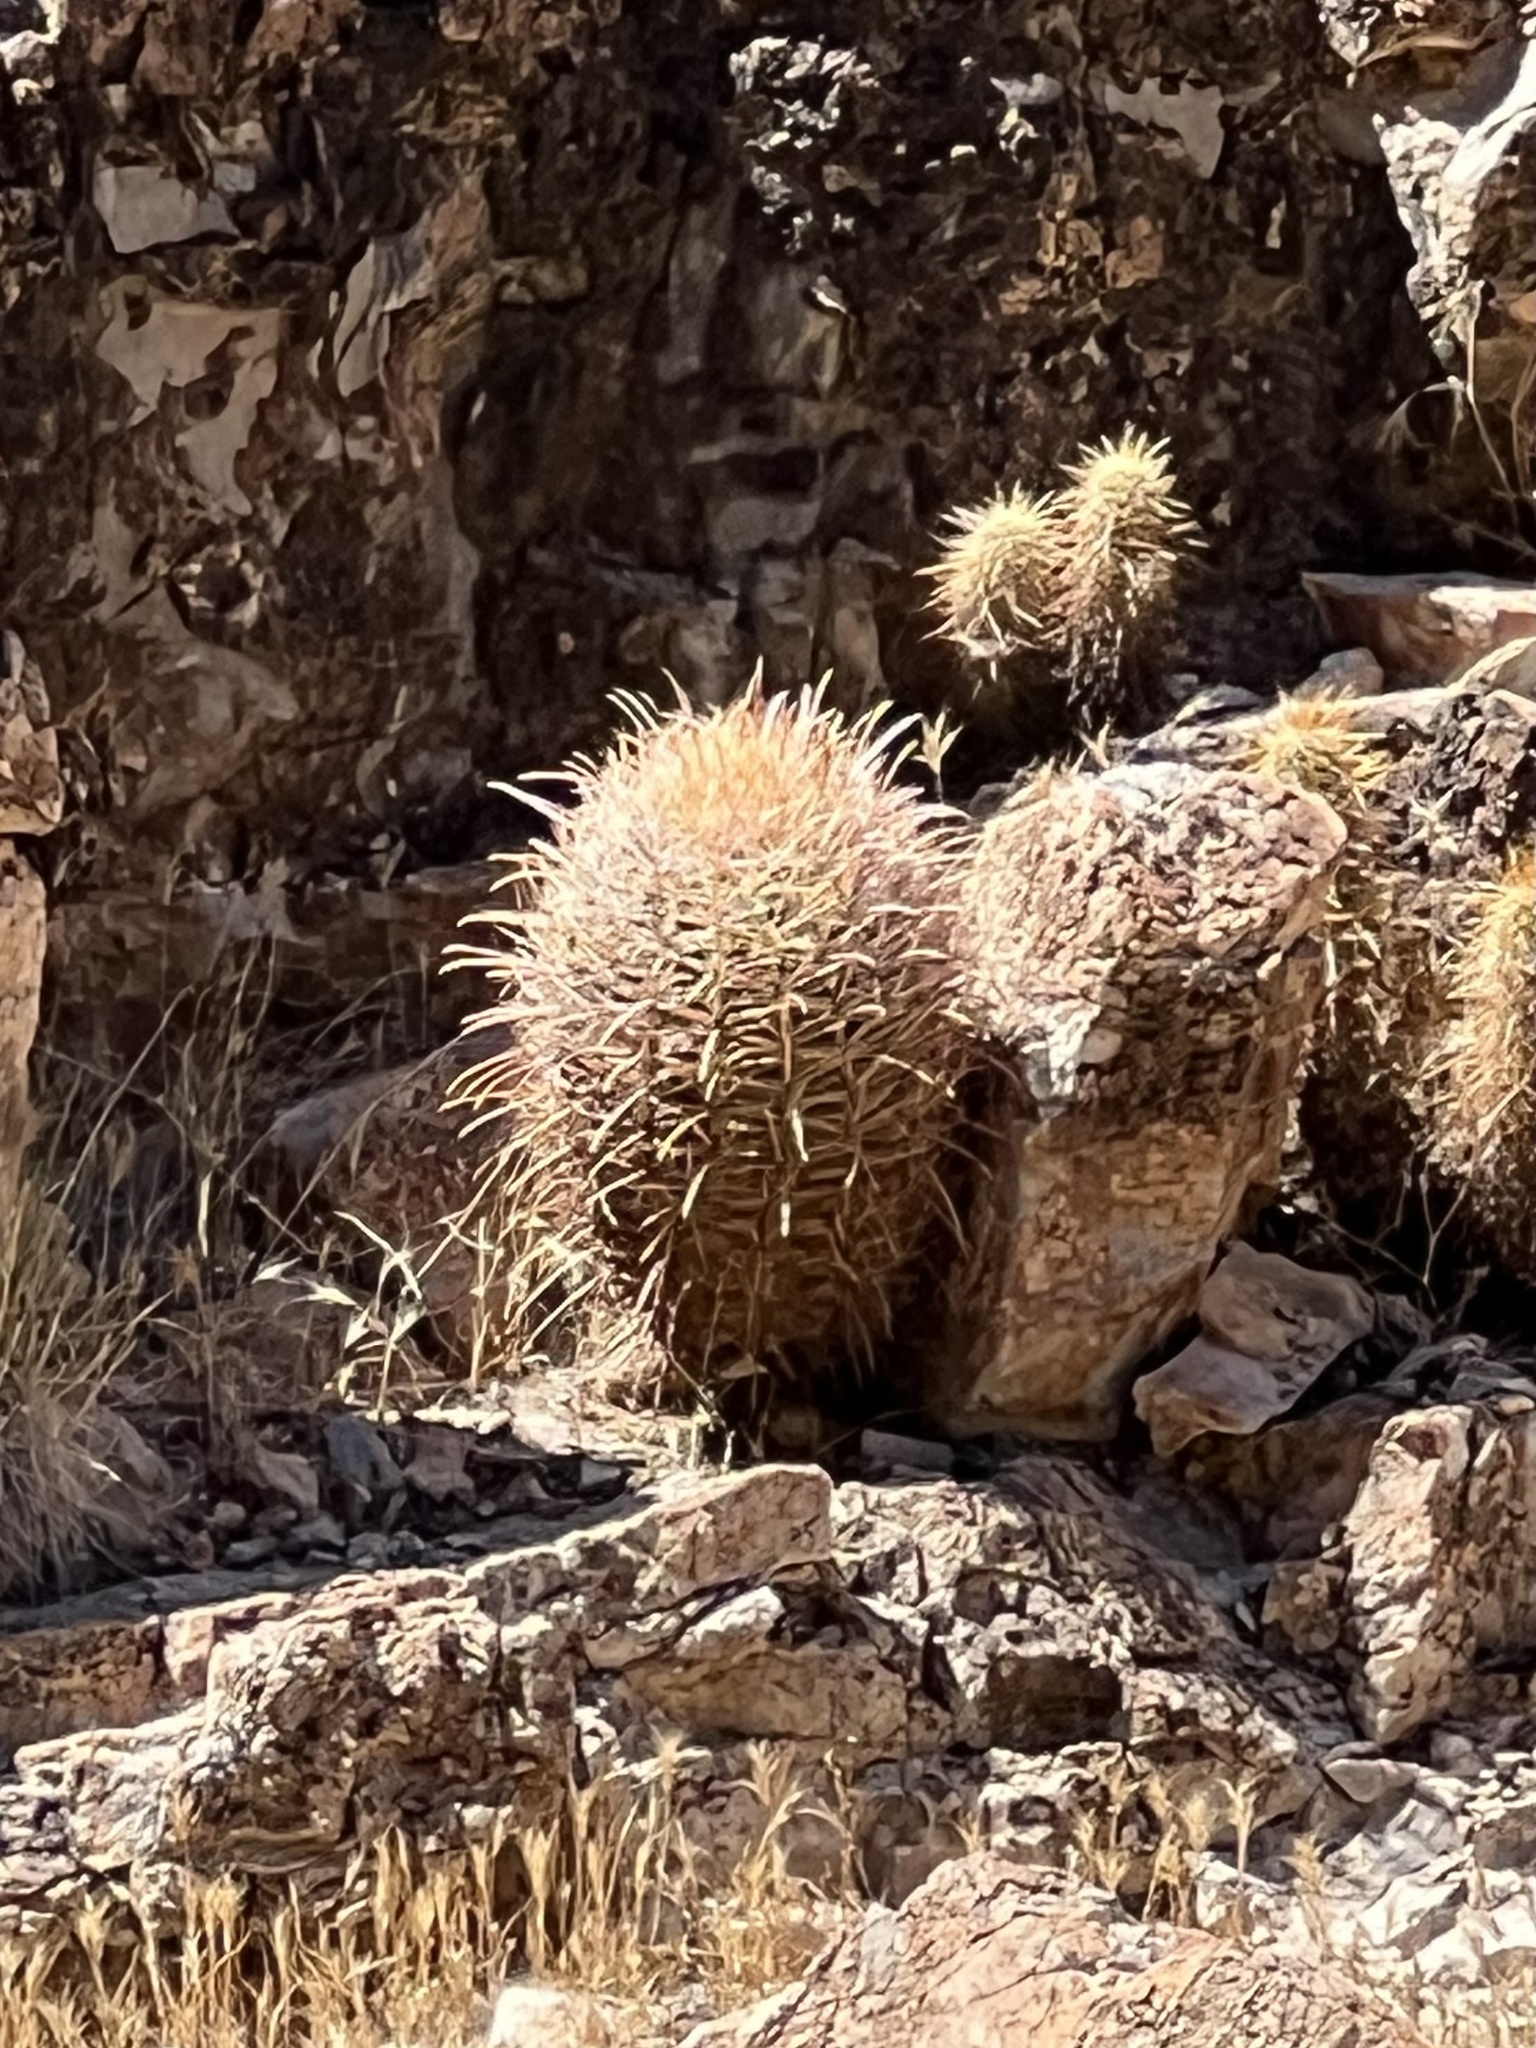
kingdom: Plantae
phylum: Tracheophyta
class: Magnoliopsida
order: Caryophyllales
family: Cactaceae
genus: Ferocactus
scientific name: Ferocactus cylindraceus
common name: California barrel cactus
